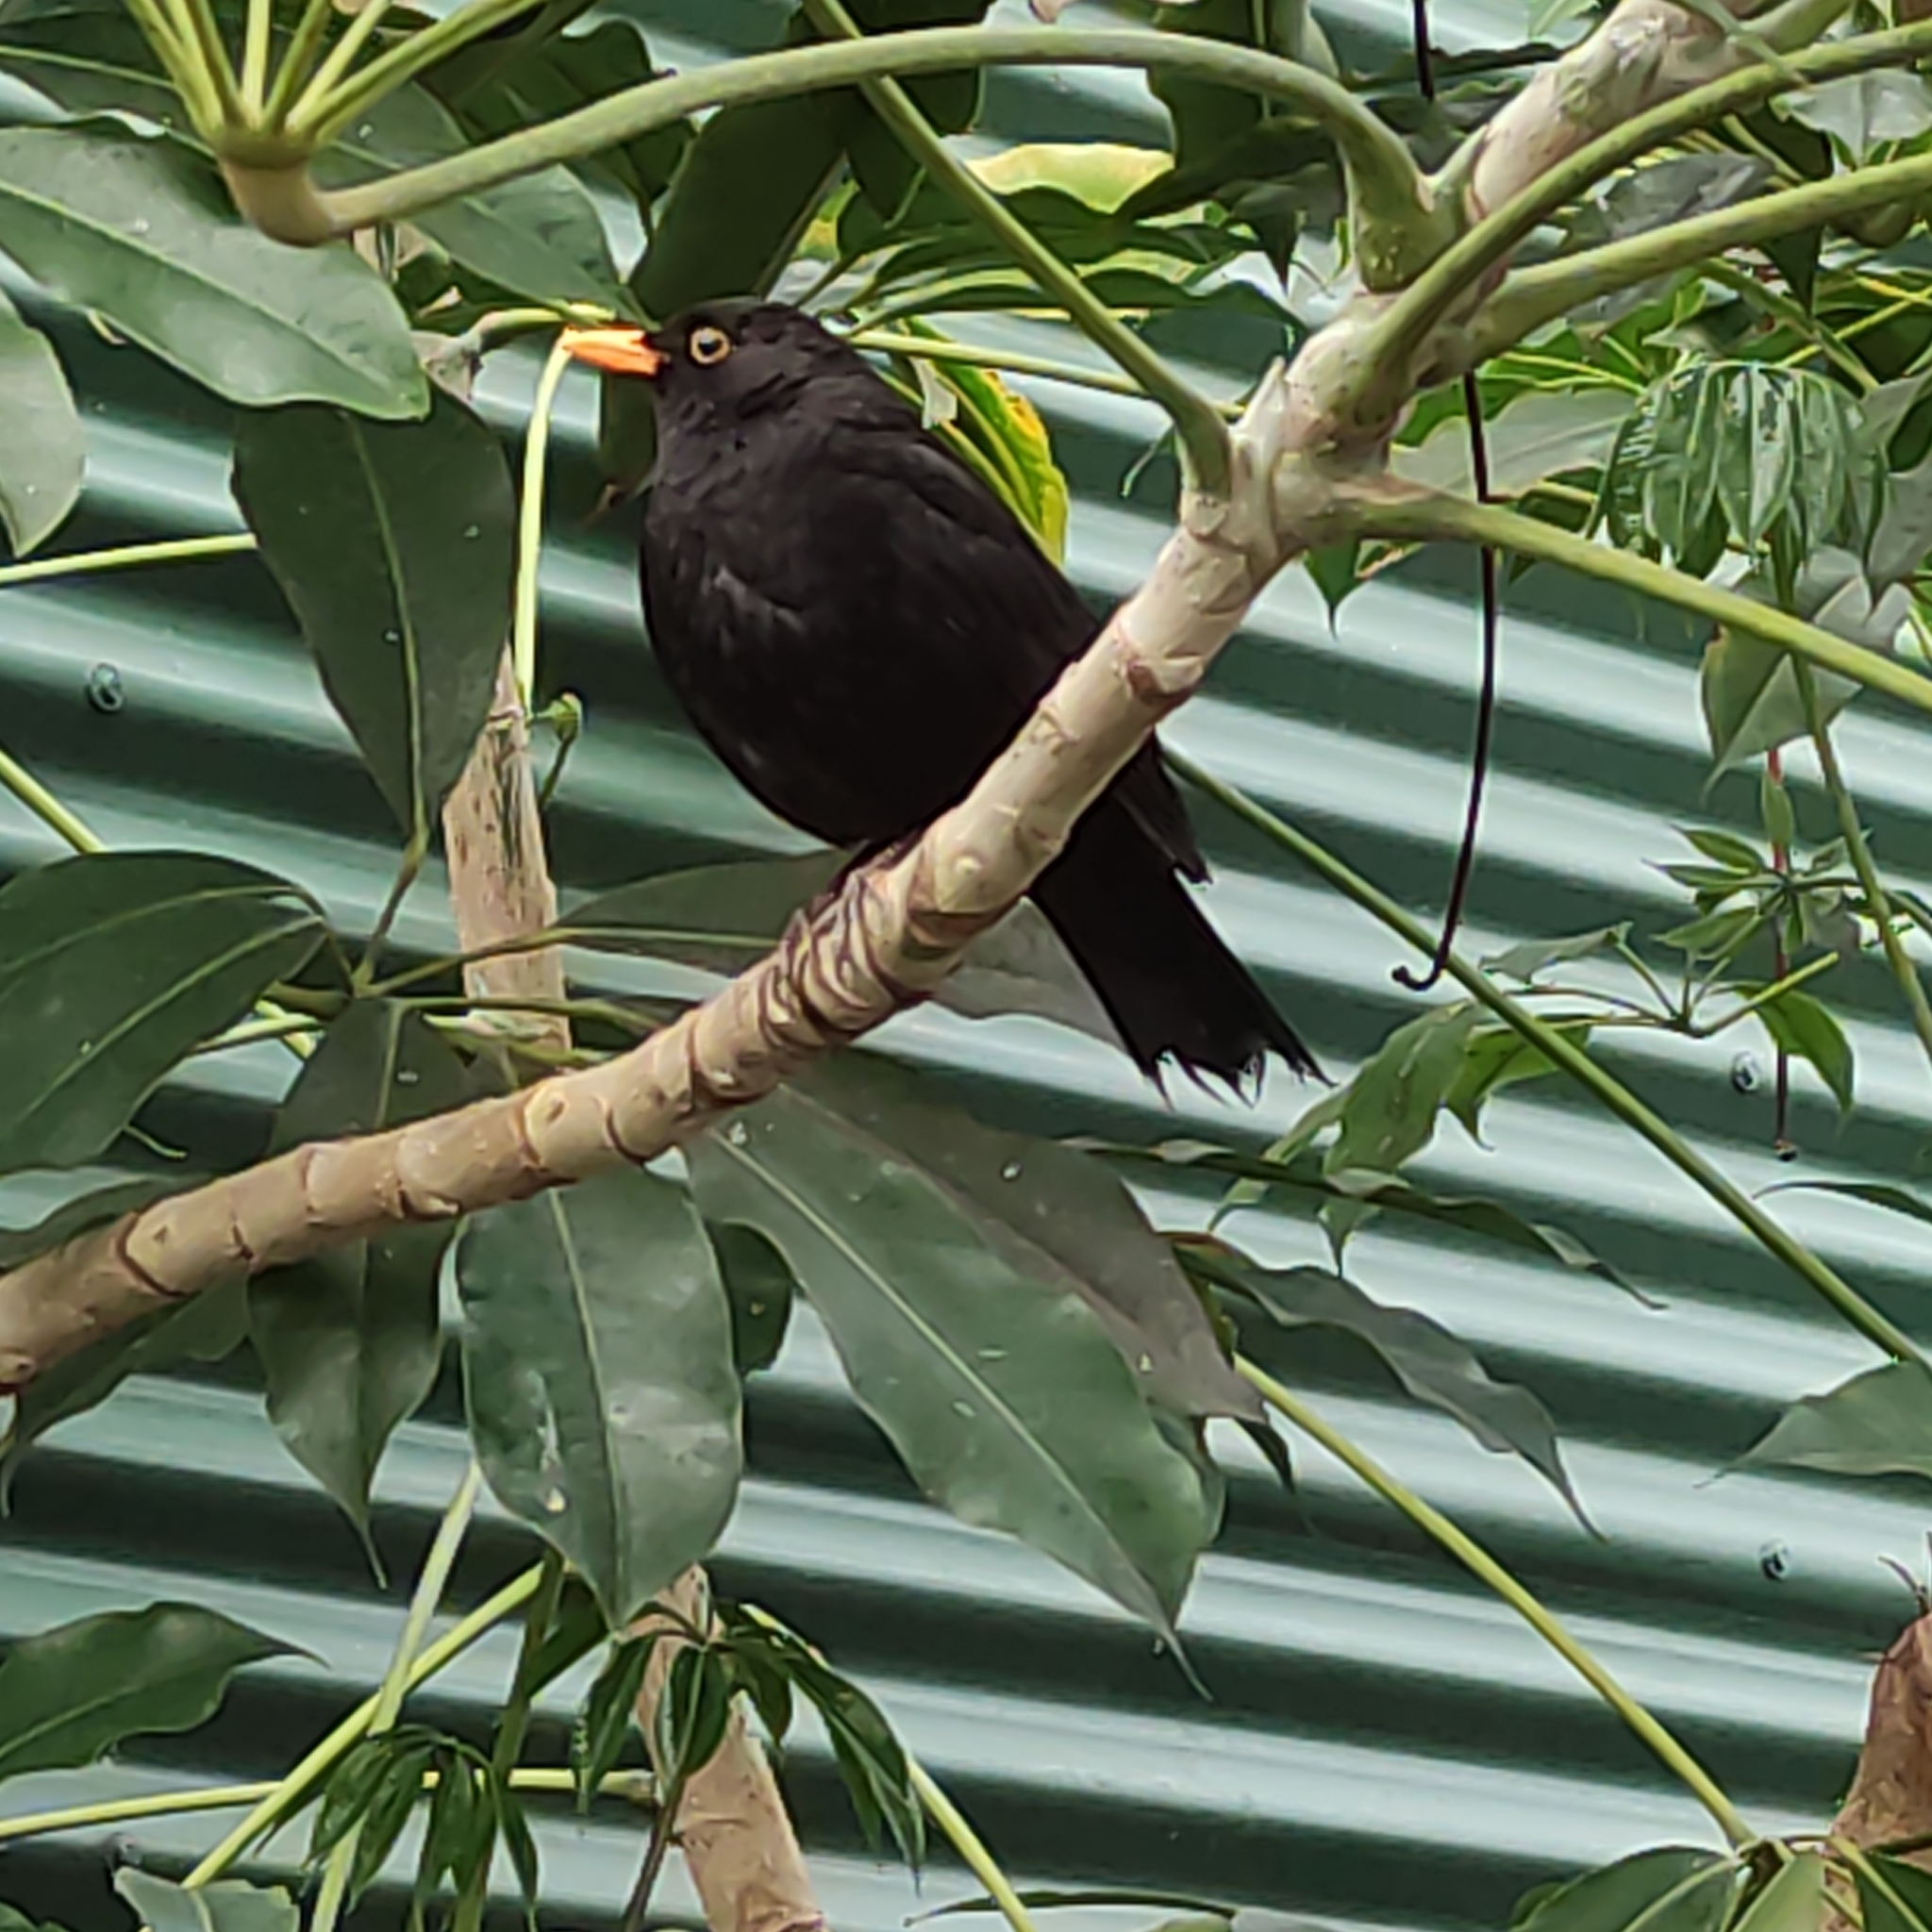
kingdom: Animalia
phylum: Chordata
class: Aves
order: Passeriformes
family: Turdidae
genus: Turdus
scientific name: Turdus merula
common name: Common blackbird
